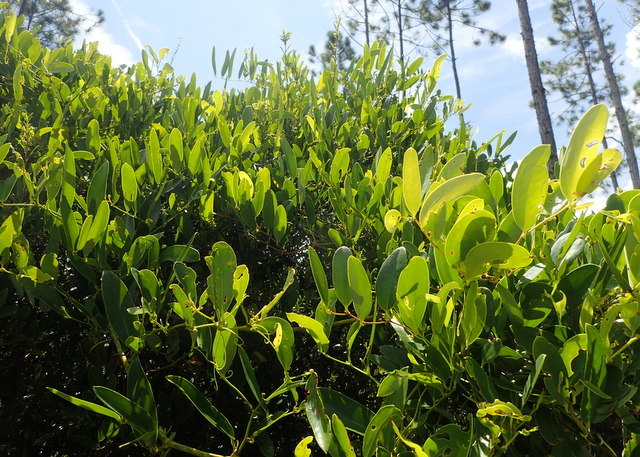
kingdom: Plantae
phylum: Tracheophyta
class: Liliopsida
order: Liliales
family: Smilacaceae
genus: Smilax
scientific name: Smilax laurifolia
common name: Bamboovine
